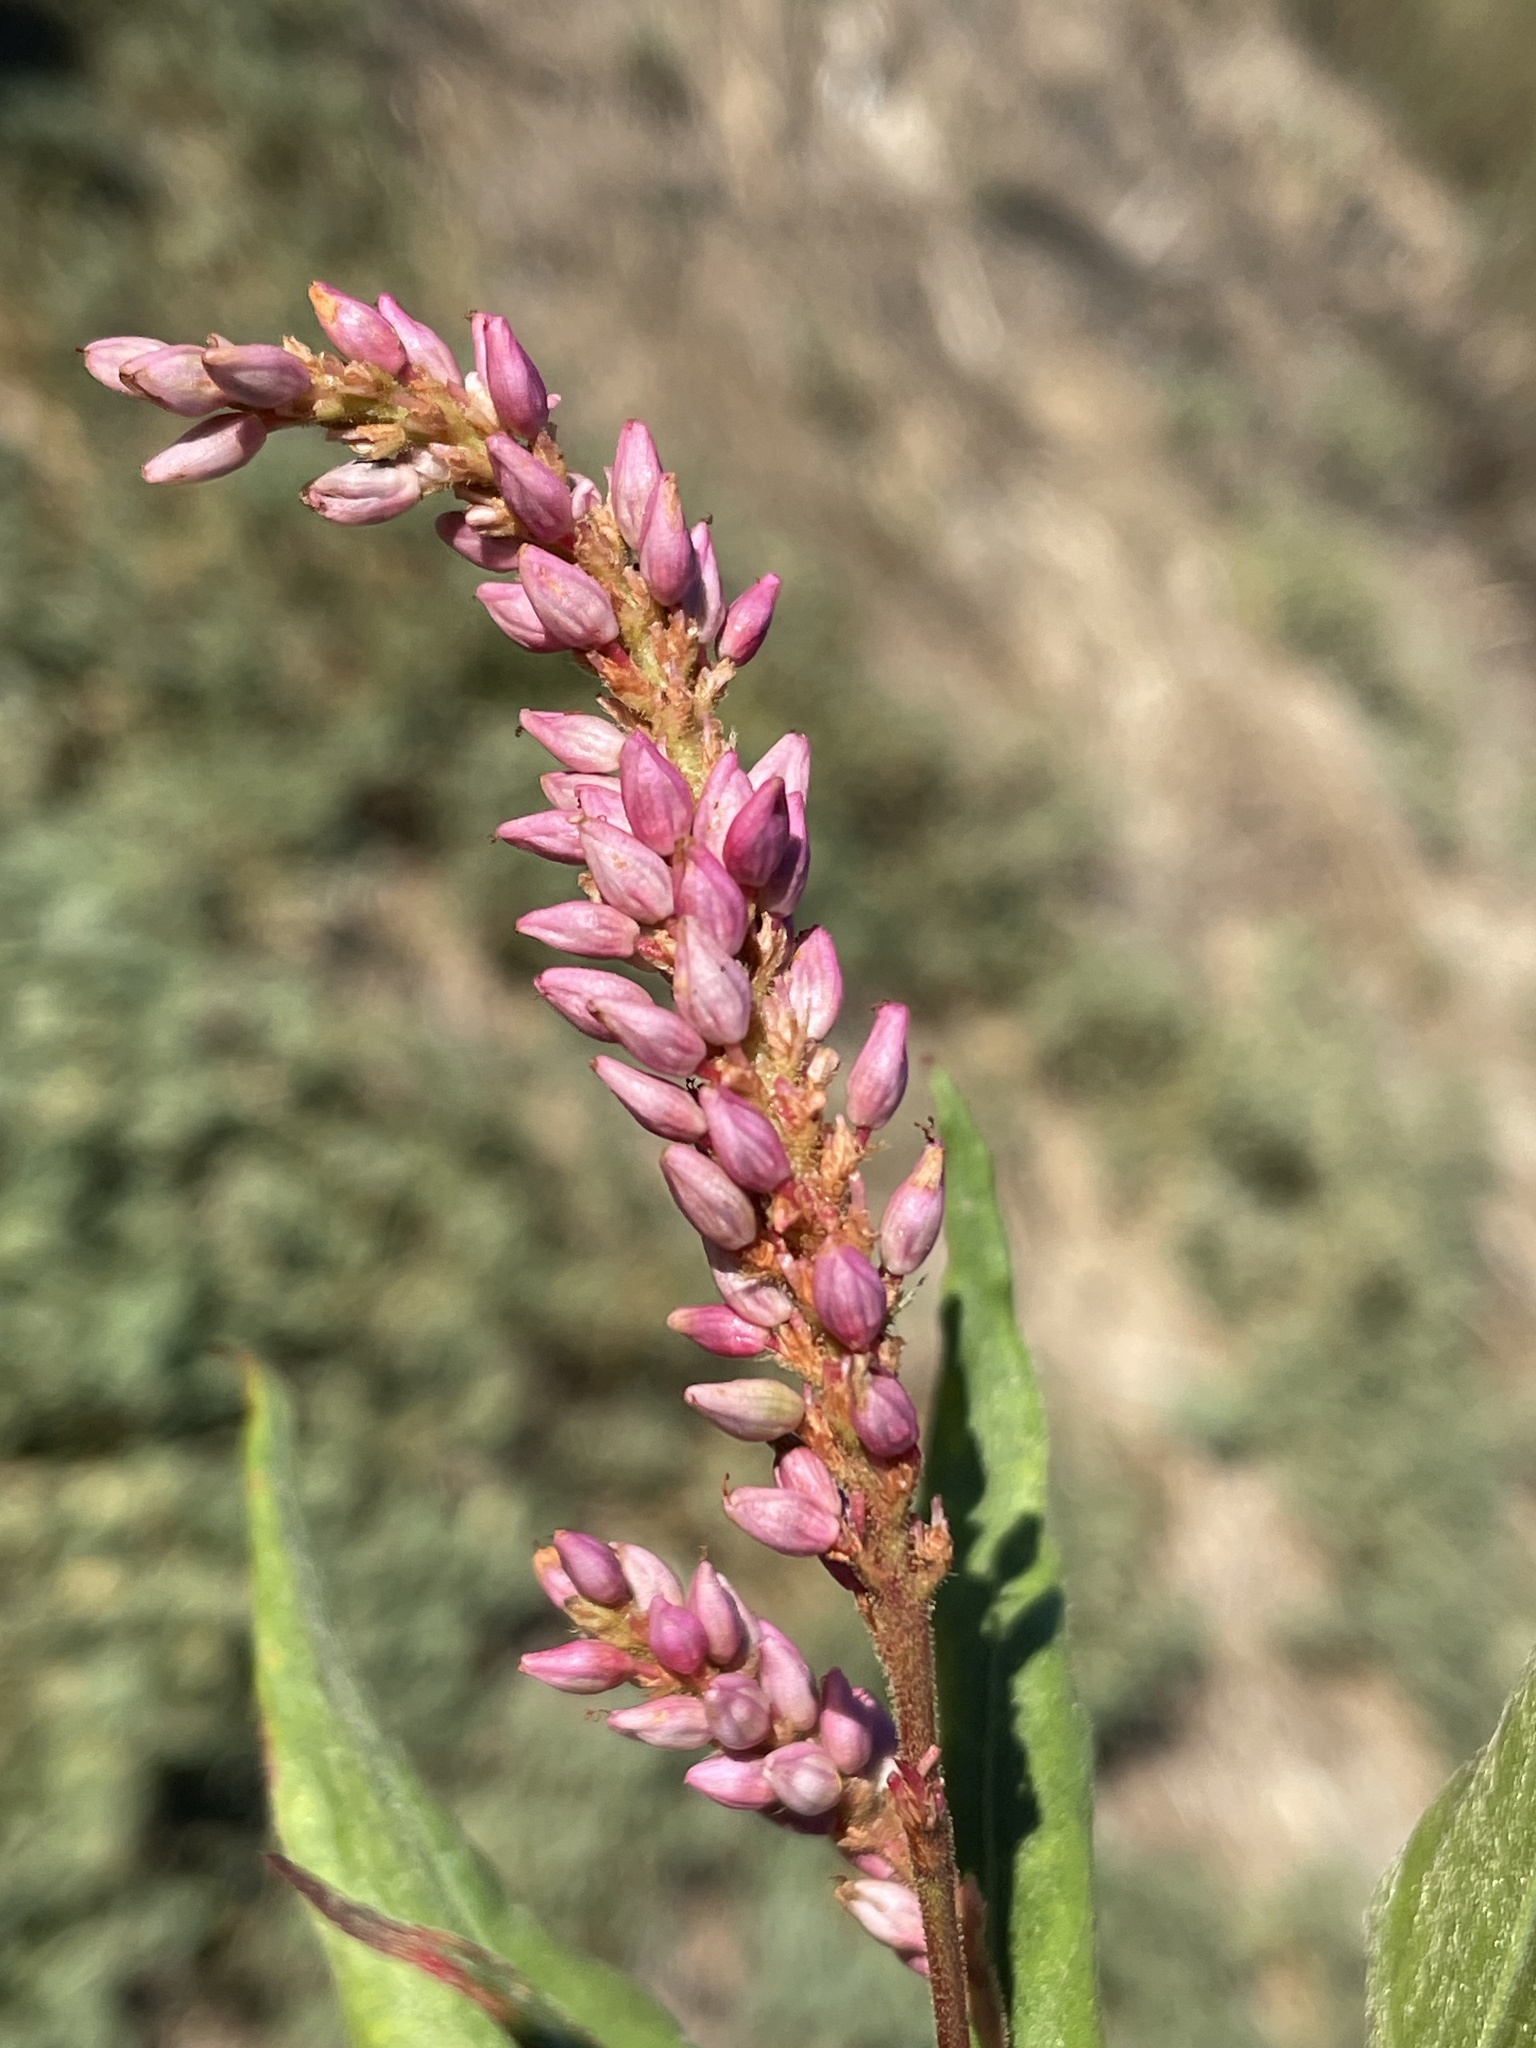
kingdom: Plantae
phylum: Tracheophyta
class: Magnoliopsida
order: Caryophyllales
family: Polygonaceae
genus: Persicaria
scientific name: Persicaria amphibia
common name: Amphibious bistort
